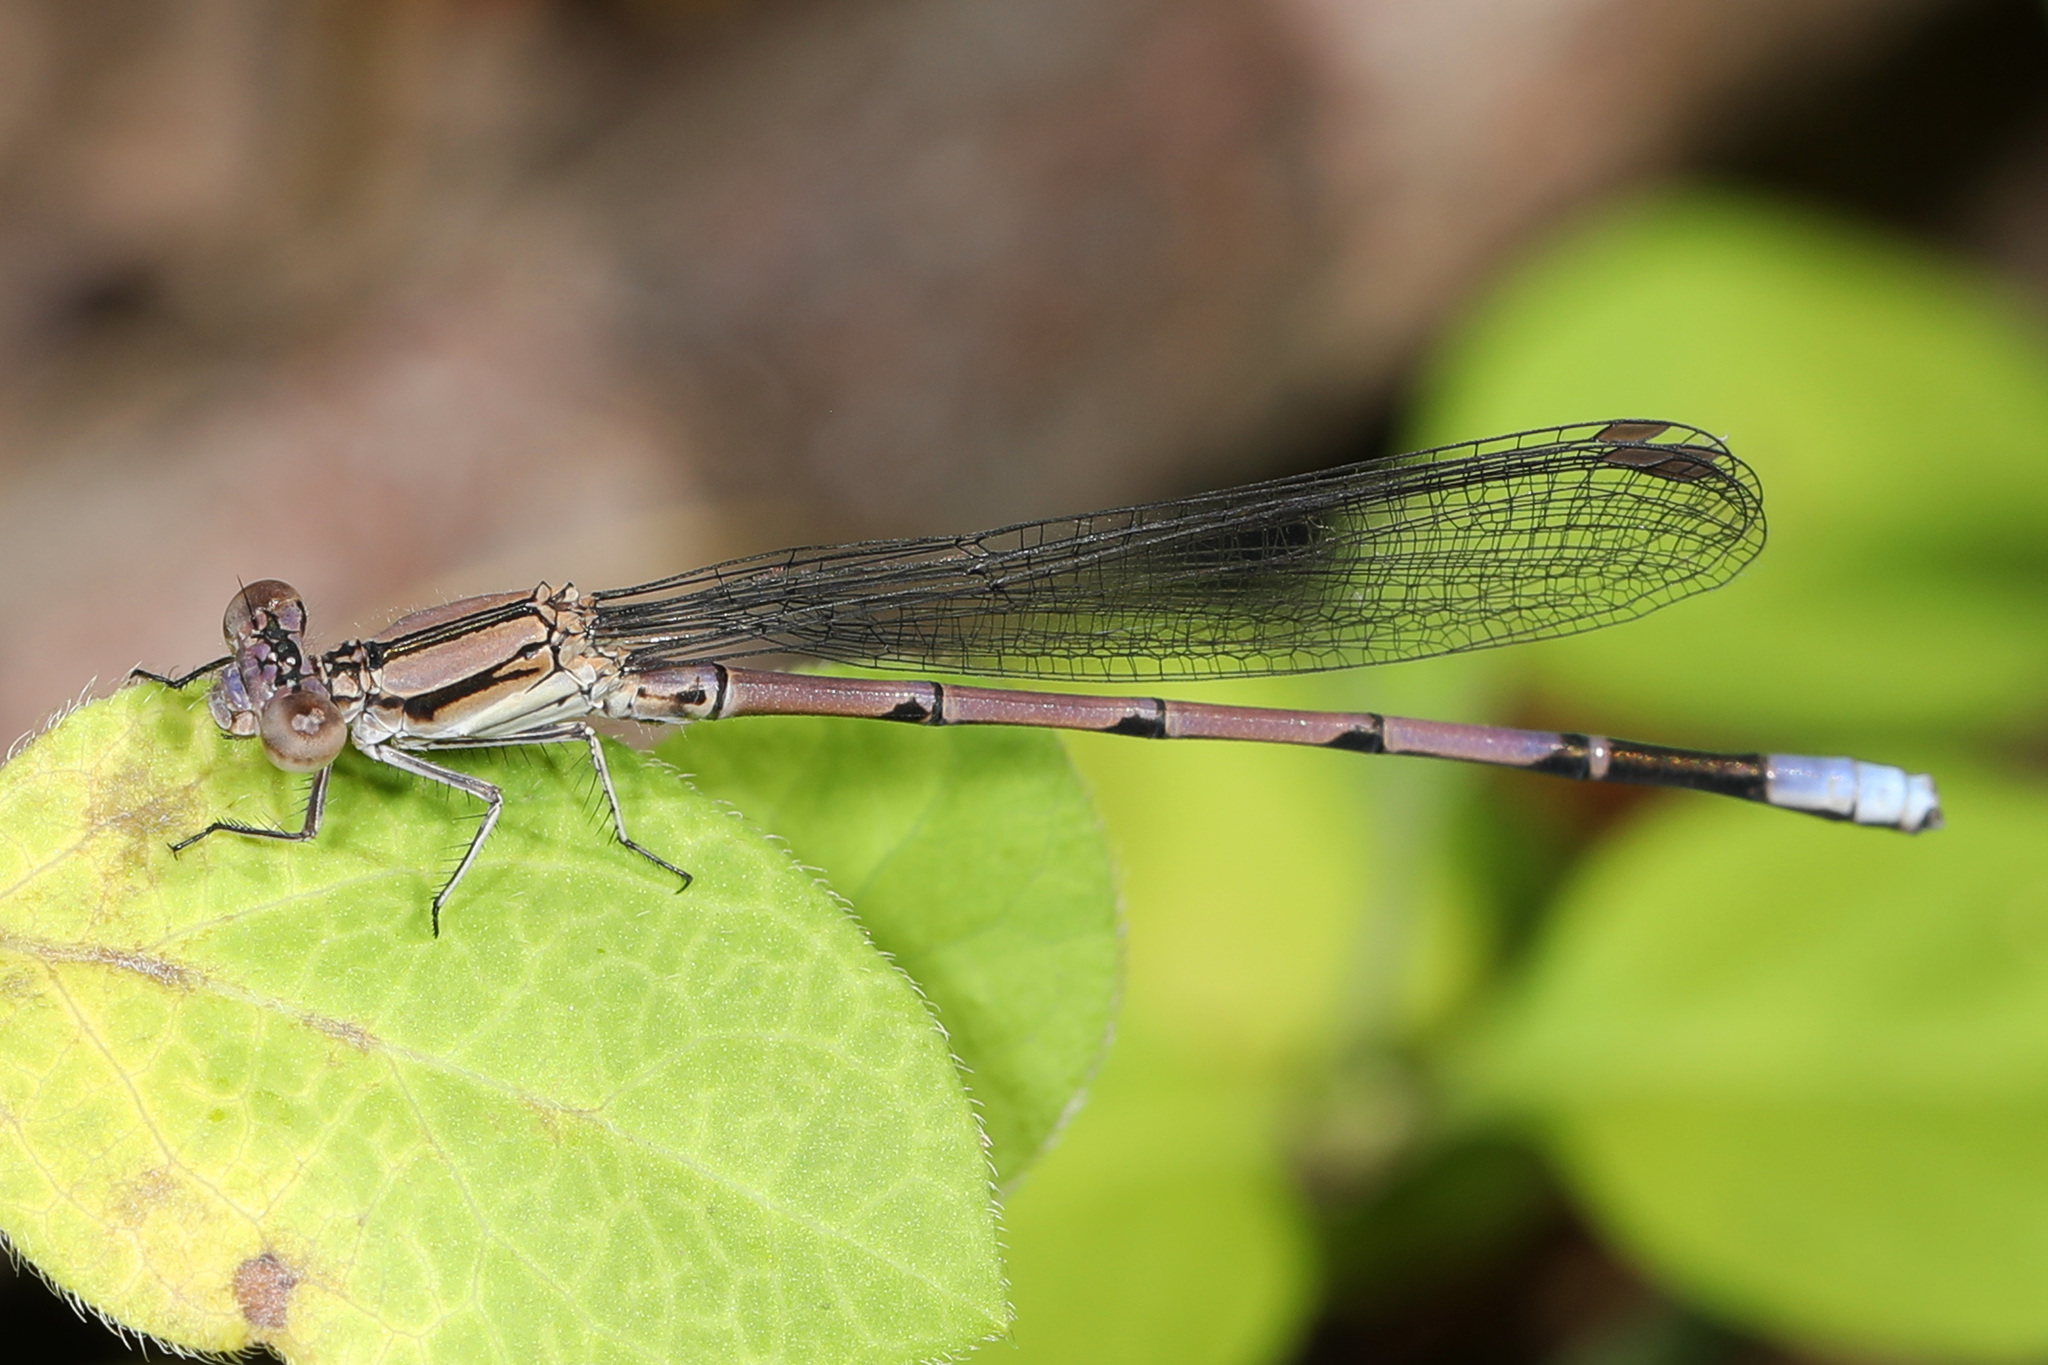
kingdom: Animalia
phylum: Arthropoda
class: Insecta
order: Odonata
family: Coenagrionidae
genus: Argia
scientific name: Argia fumipennis
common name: Variable dancer
